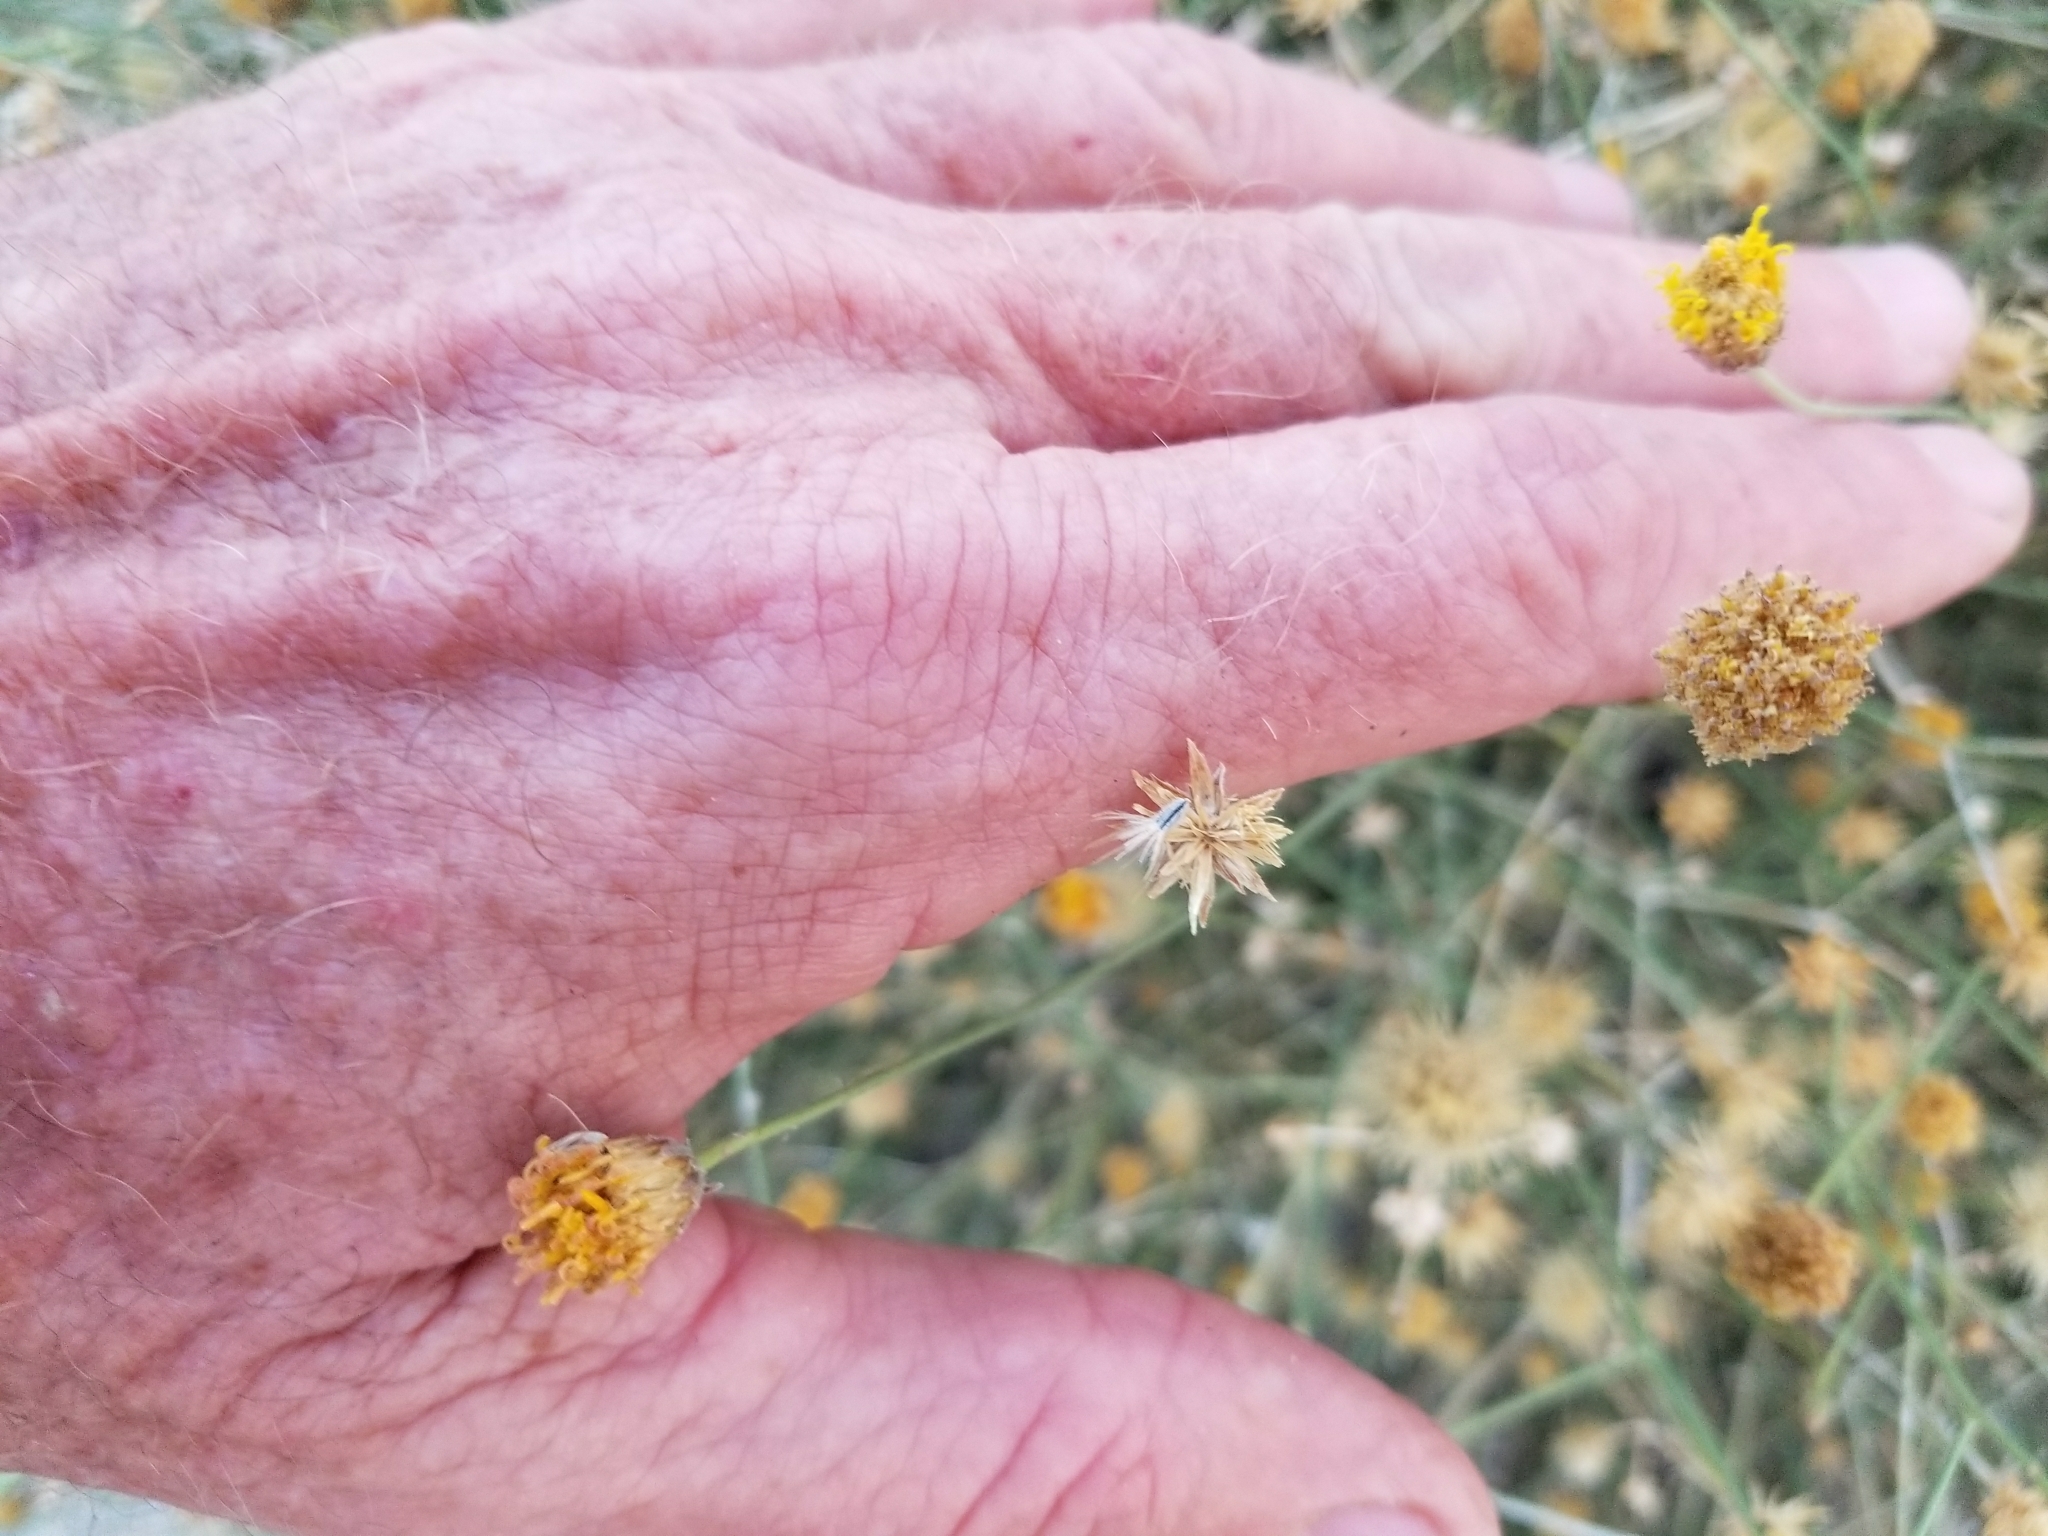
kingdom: Plantae
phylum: Tracheophyta
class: Magnoliopsida
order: Asterales
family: Asteraceae
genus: Bebbia
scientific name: Bebbia juncea
